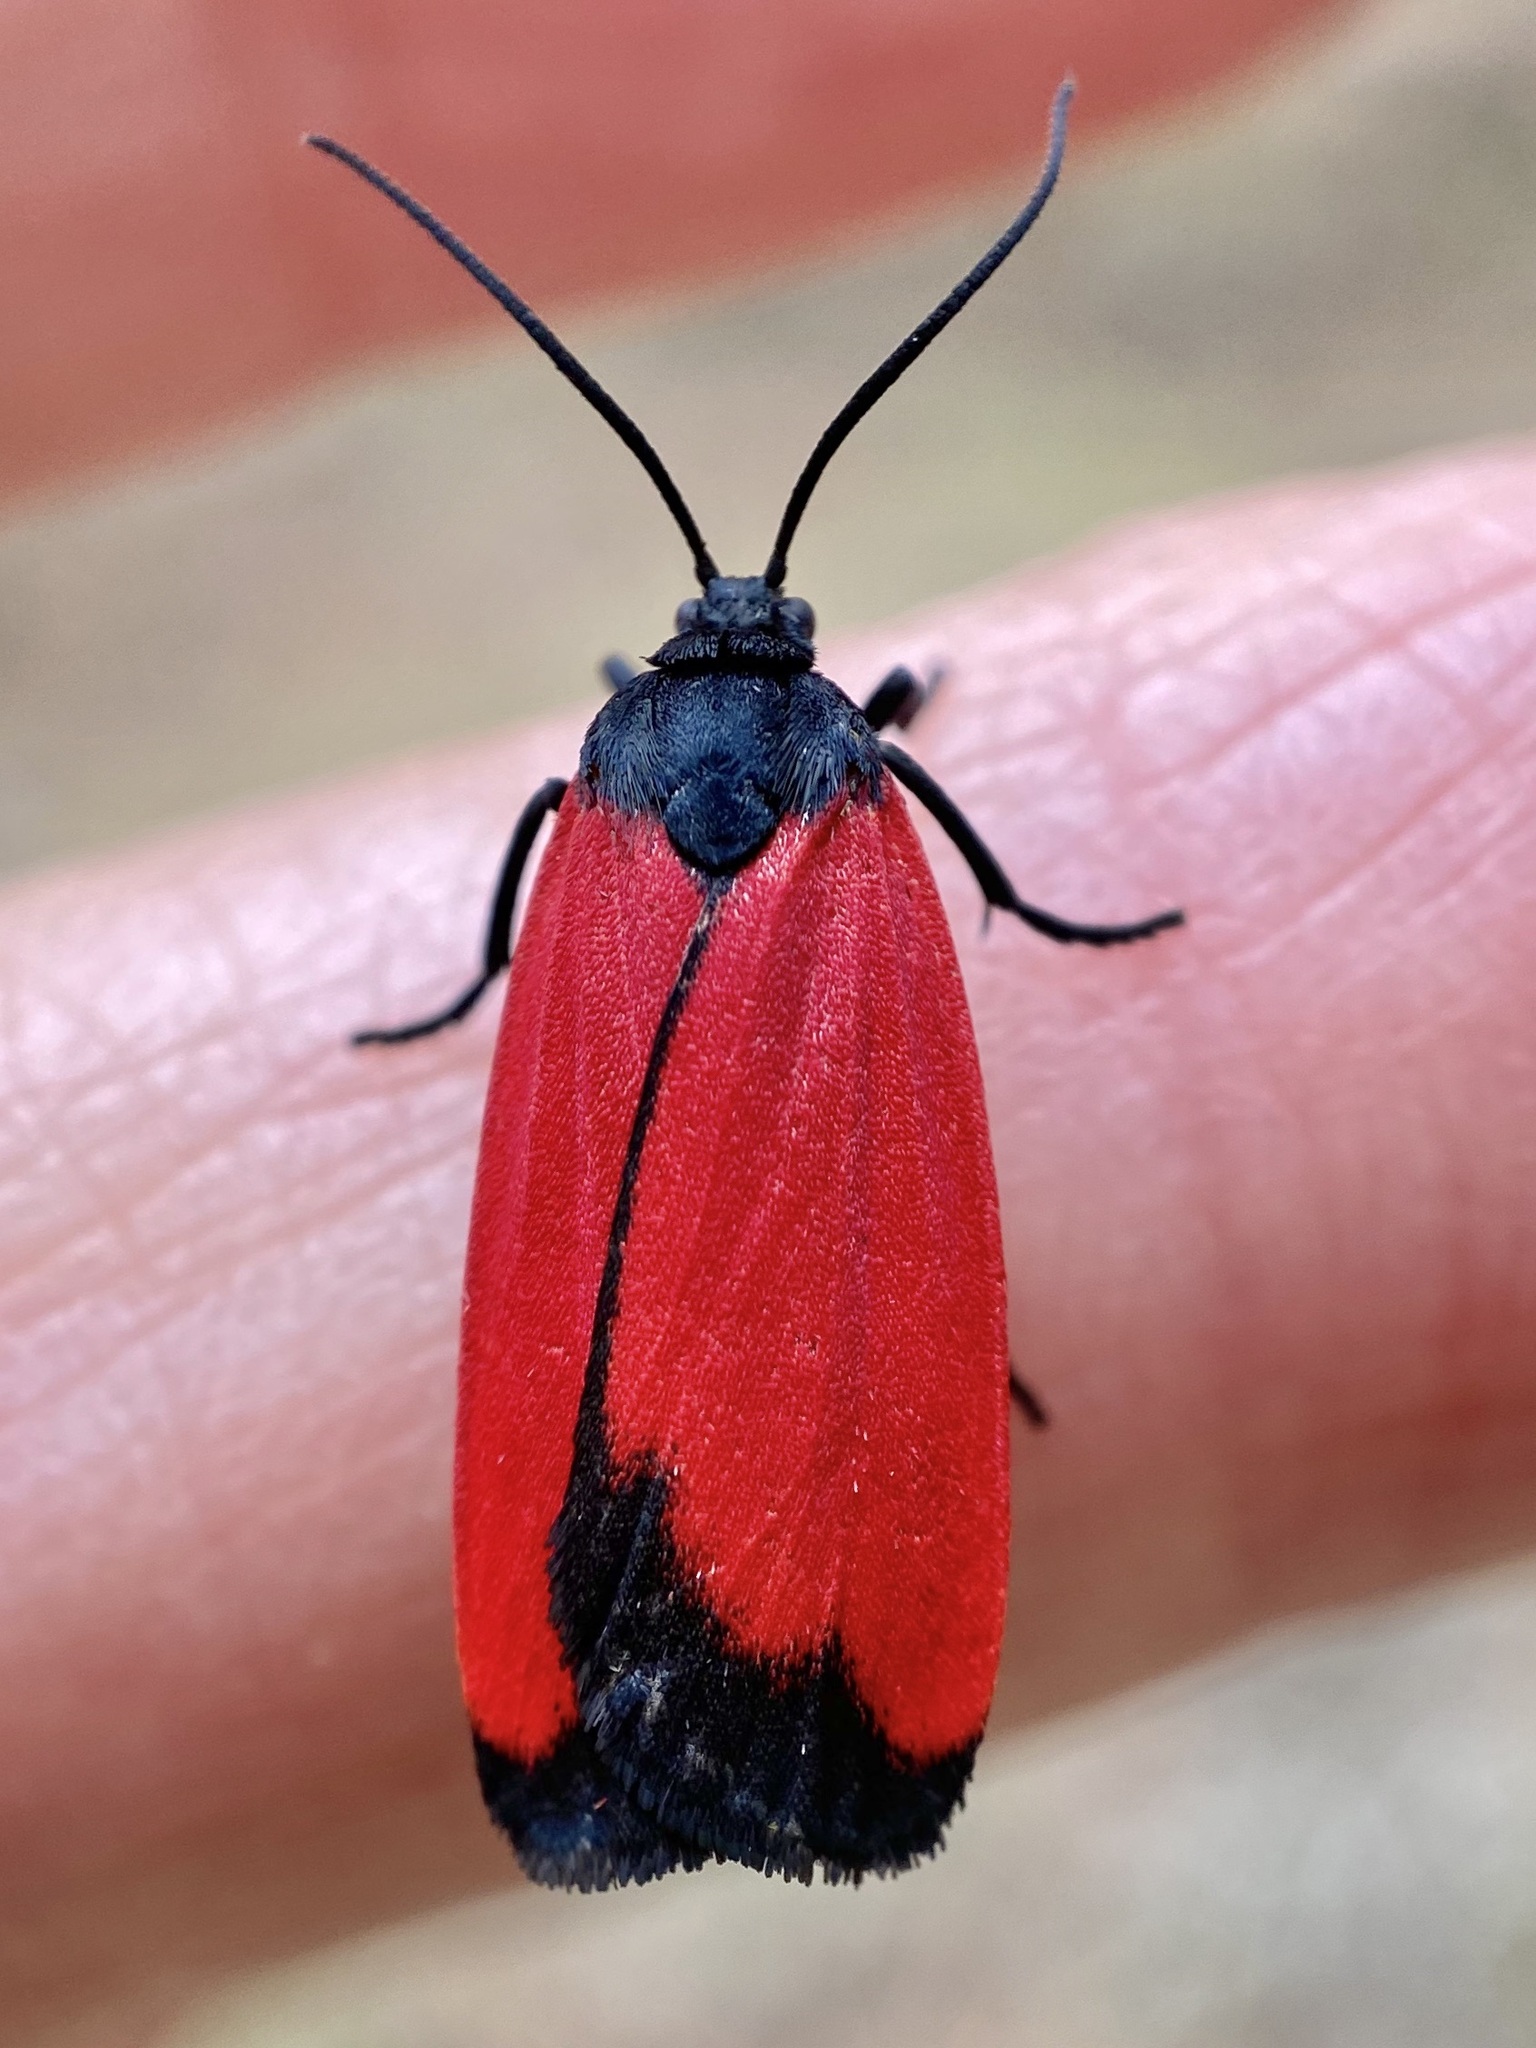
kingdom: Animalia
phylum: Arthropoda
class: Insecta
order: Lepidoptera
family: Erebidae
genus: Ptychoglene
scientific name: Ptychoglene phrada
